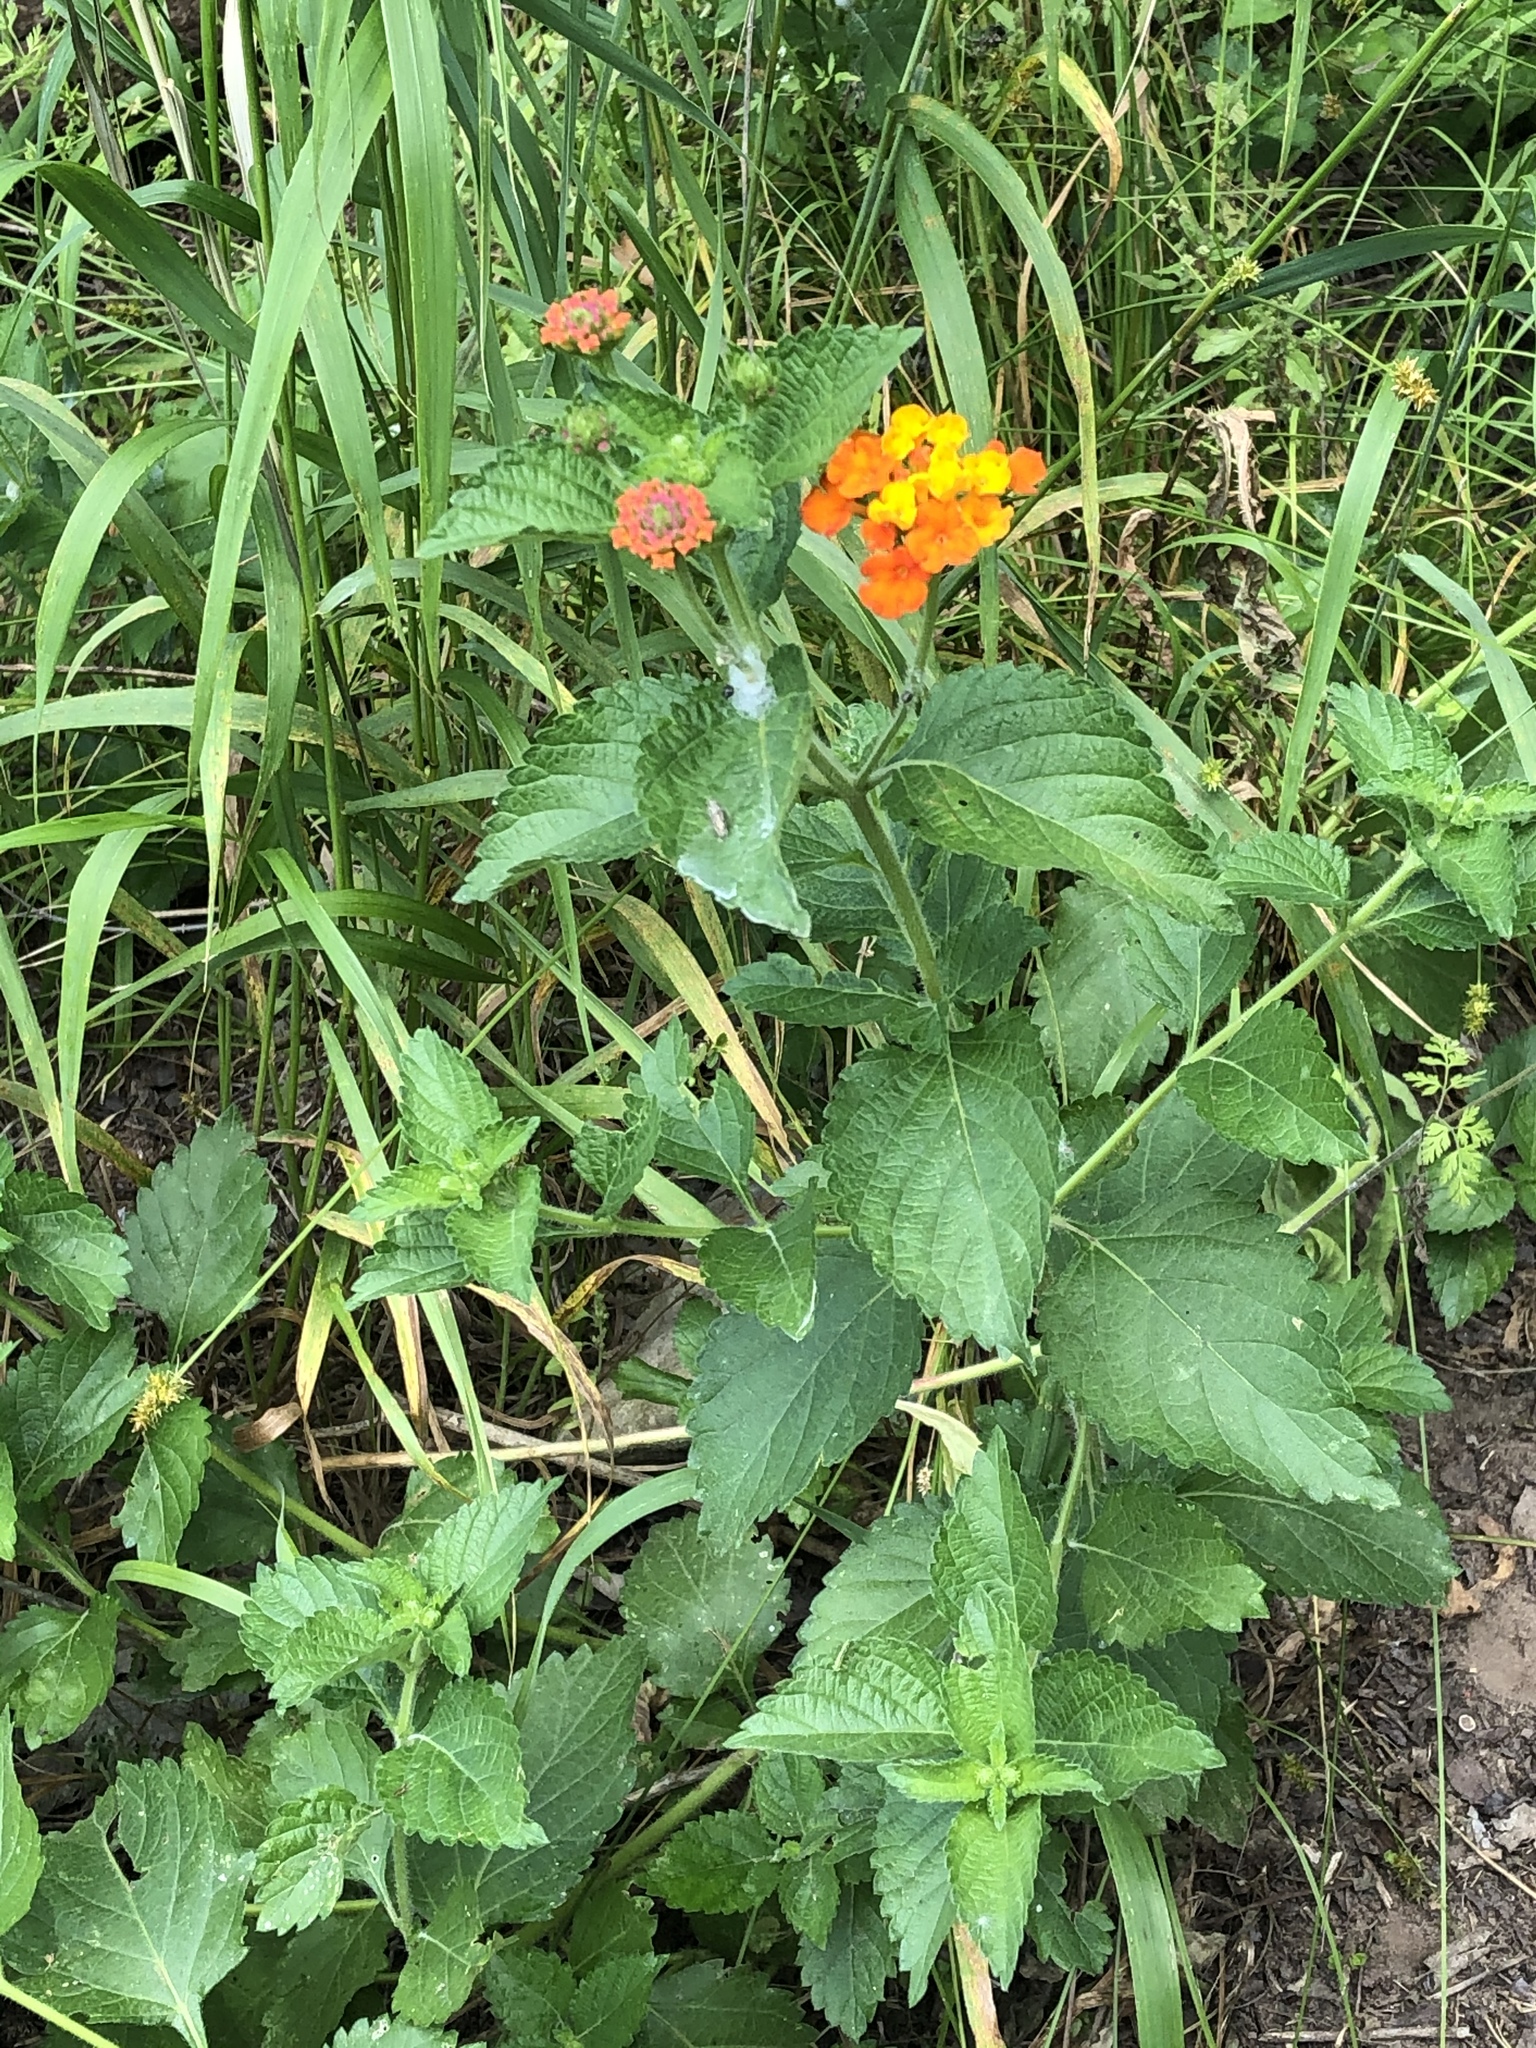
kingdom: Plantae
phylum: Tracheophyta
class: Magnoliopsida
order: Lamiales
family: Verbenaceae
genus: Lantana
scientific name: Lantana urticoides
